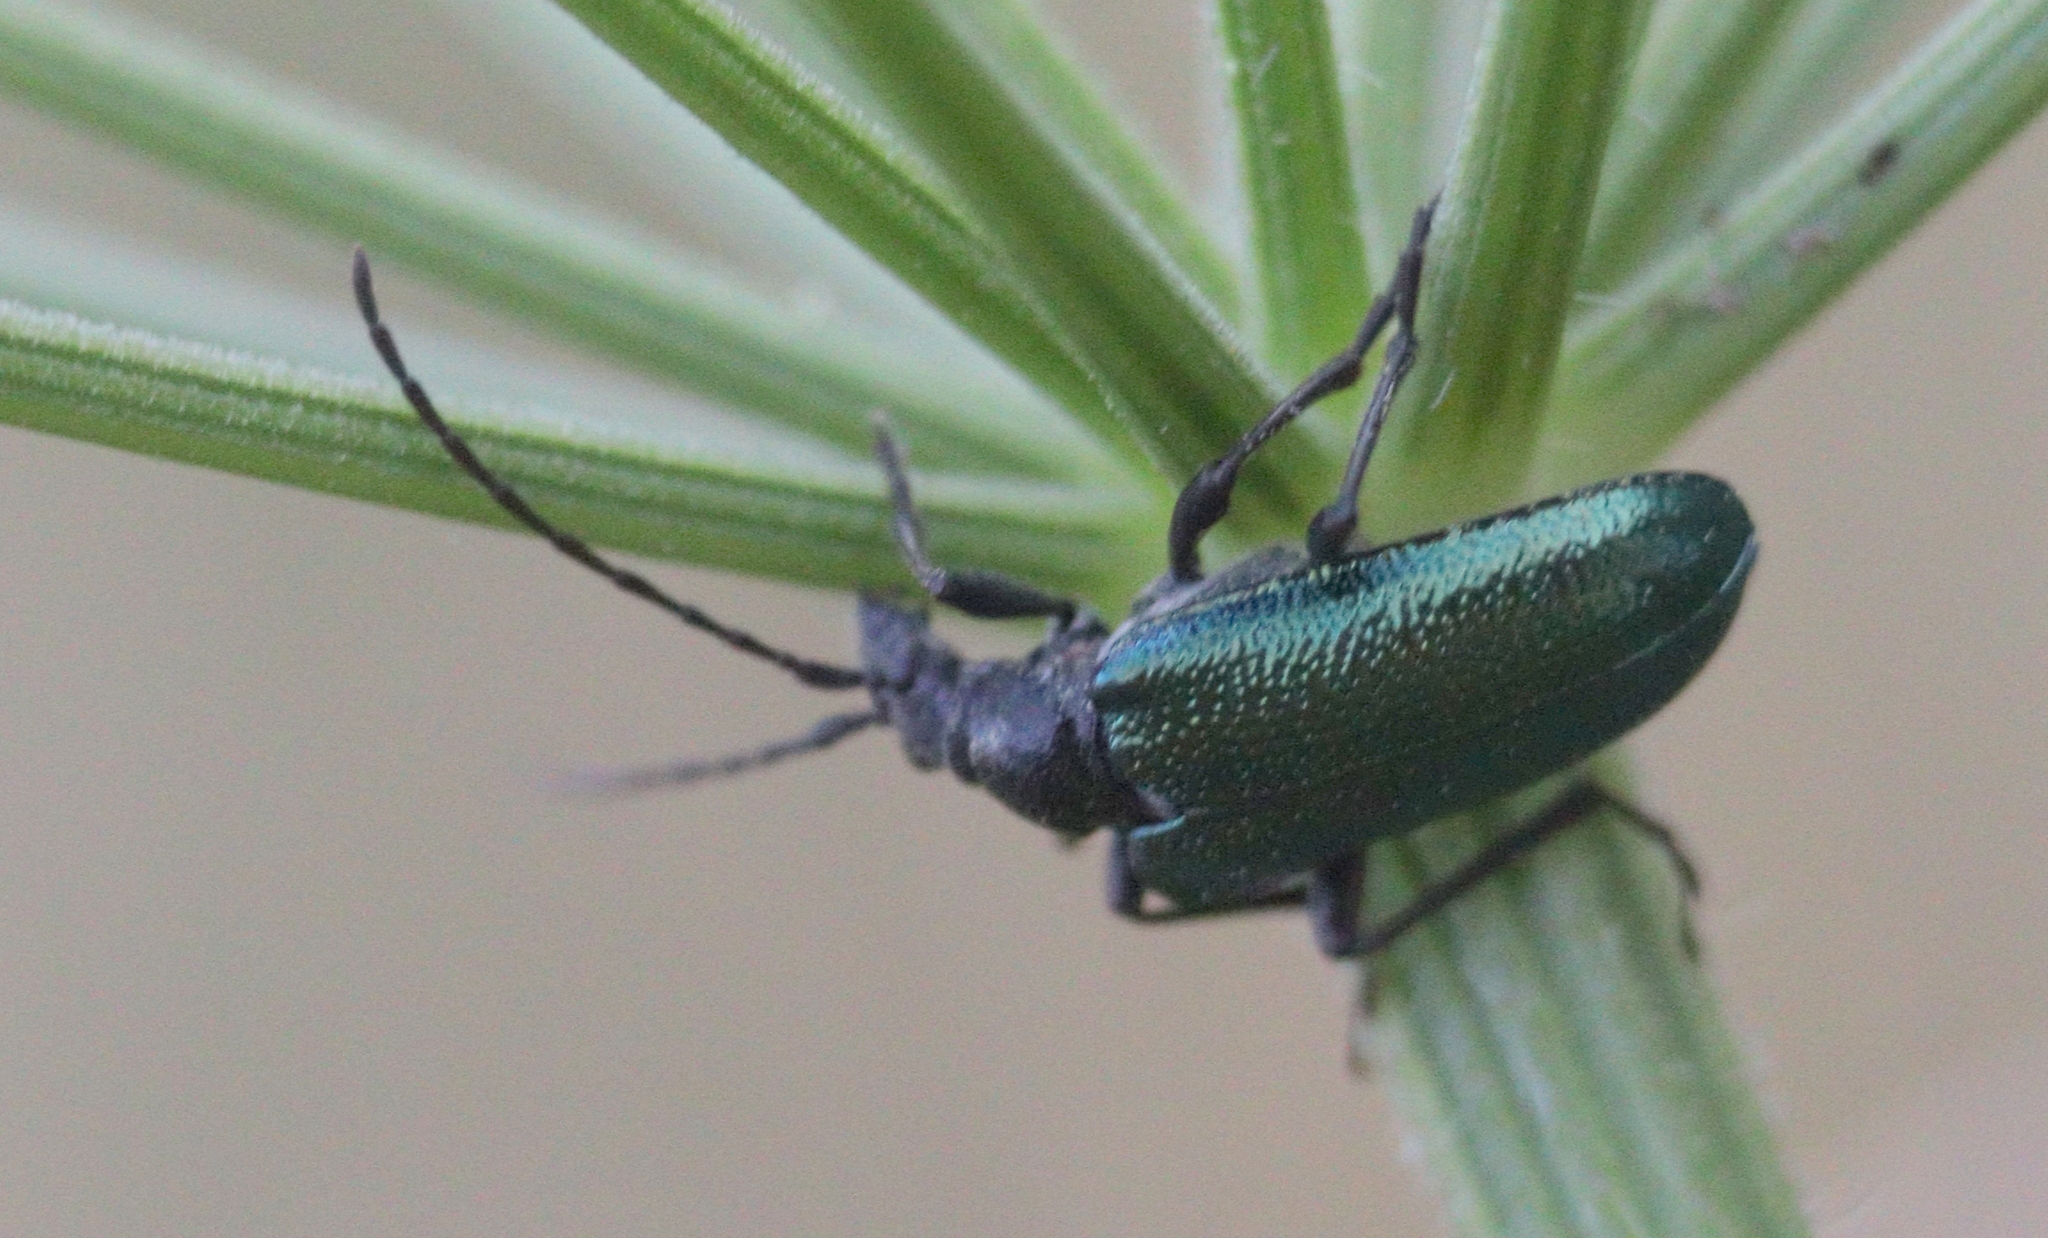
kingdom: Animalia
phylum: Arthropoda
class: Insecta
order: Coleoptera
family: Cerambycidae
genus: Gaurotes
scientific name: Gaurotes virginea
